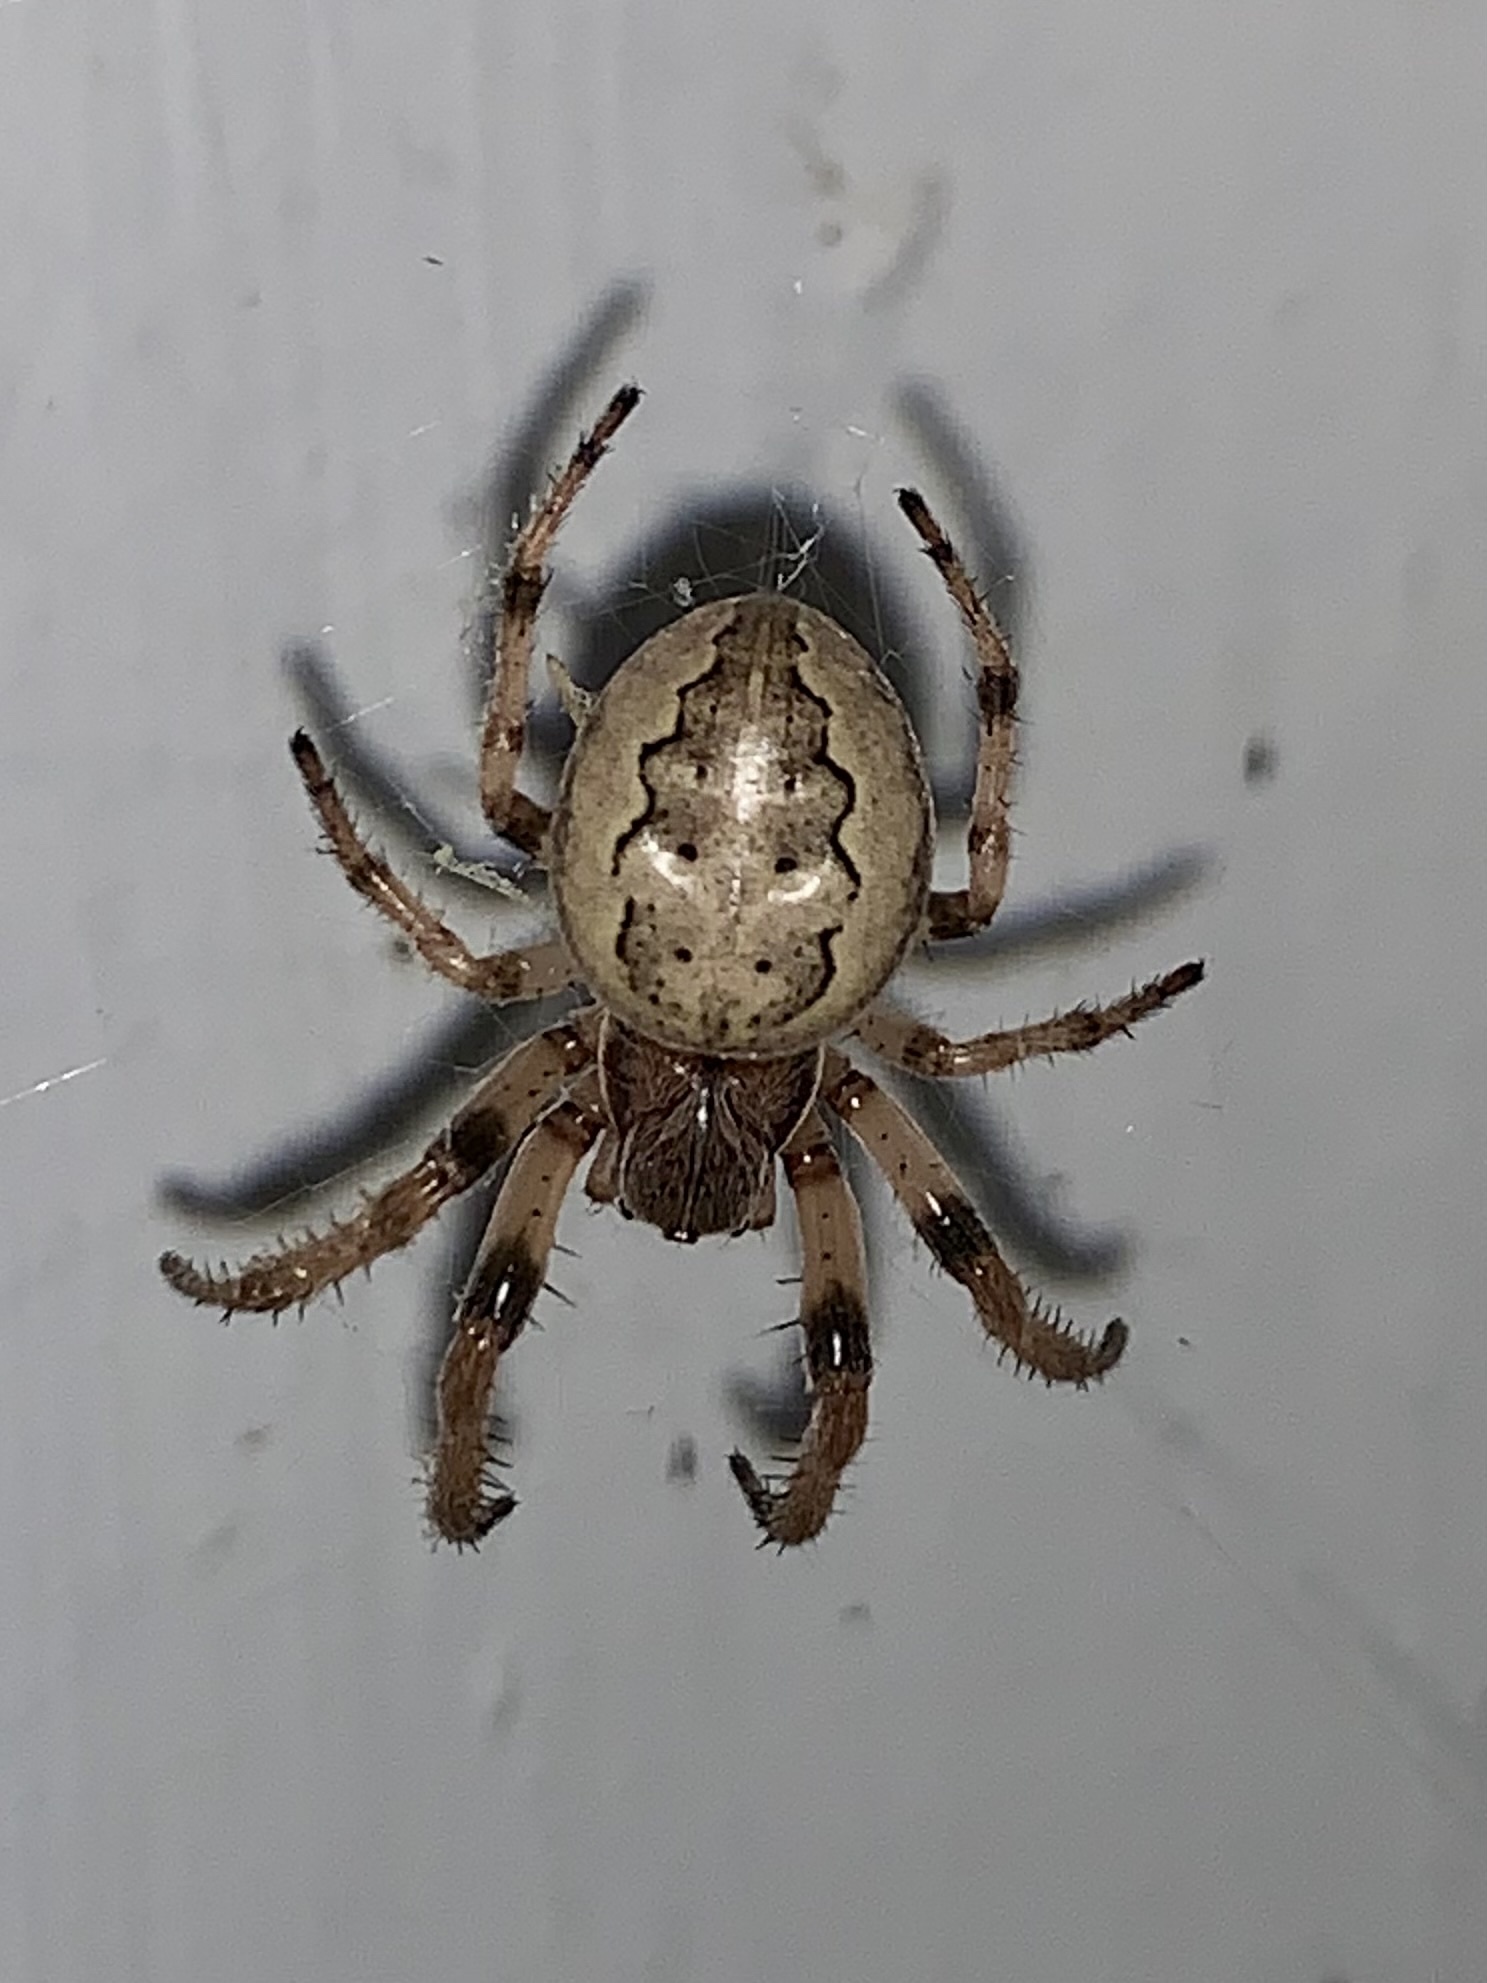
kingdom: Animalia
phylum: Arthropoda
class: Arachnida
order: Araneae
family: Araneidae
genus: Larinioides
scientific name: Larinioides cornutus
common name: Furrow orbweaver
